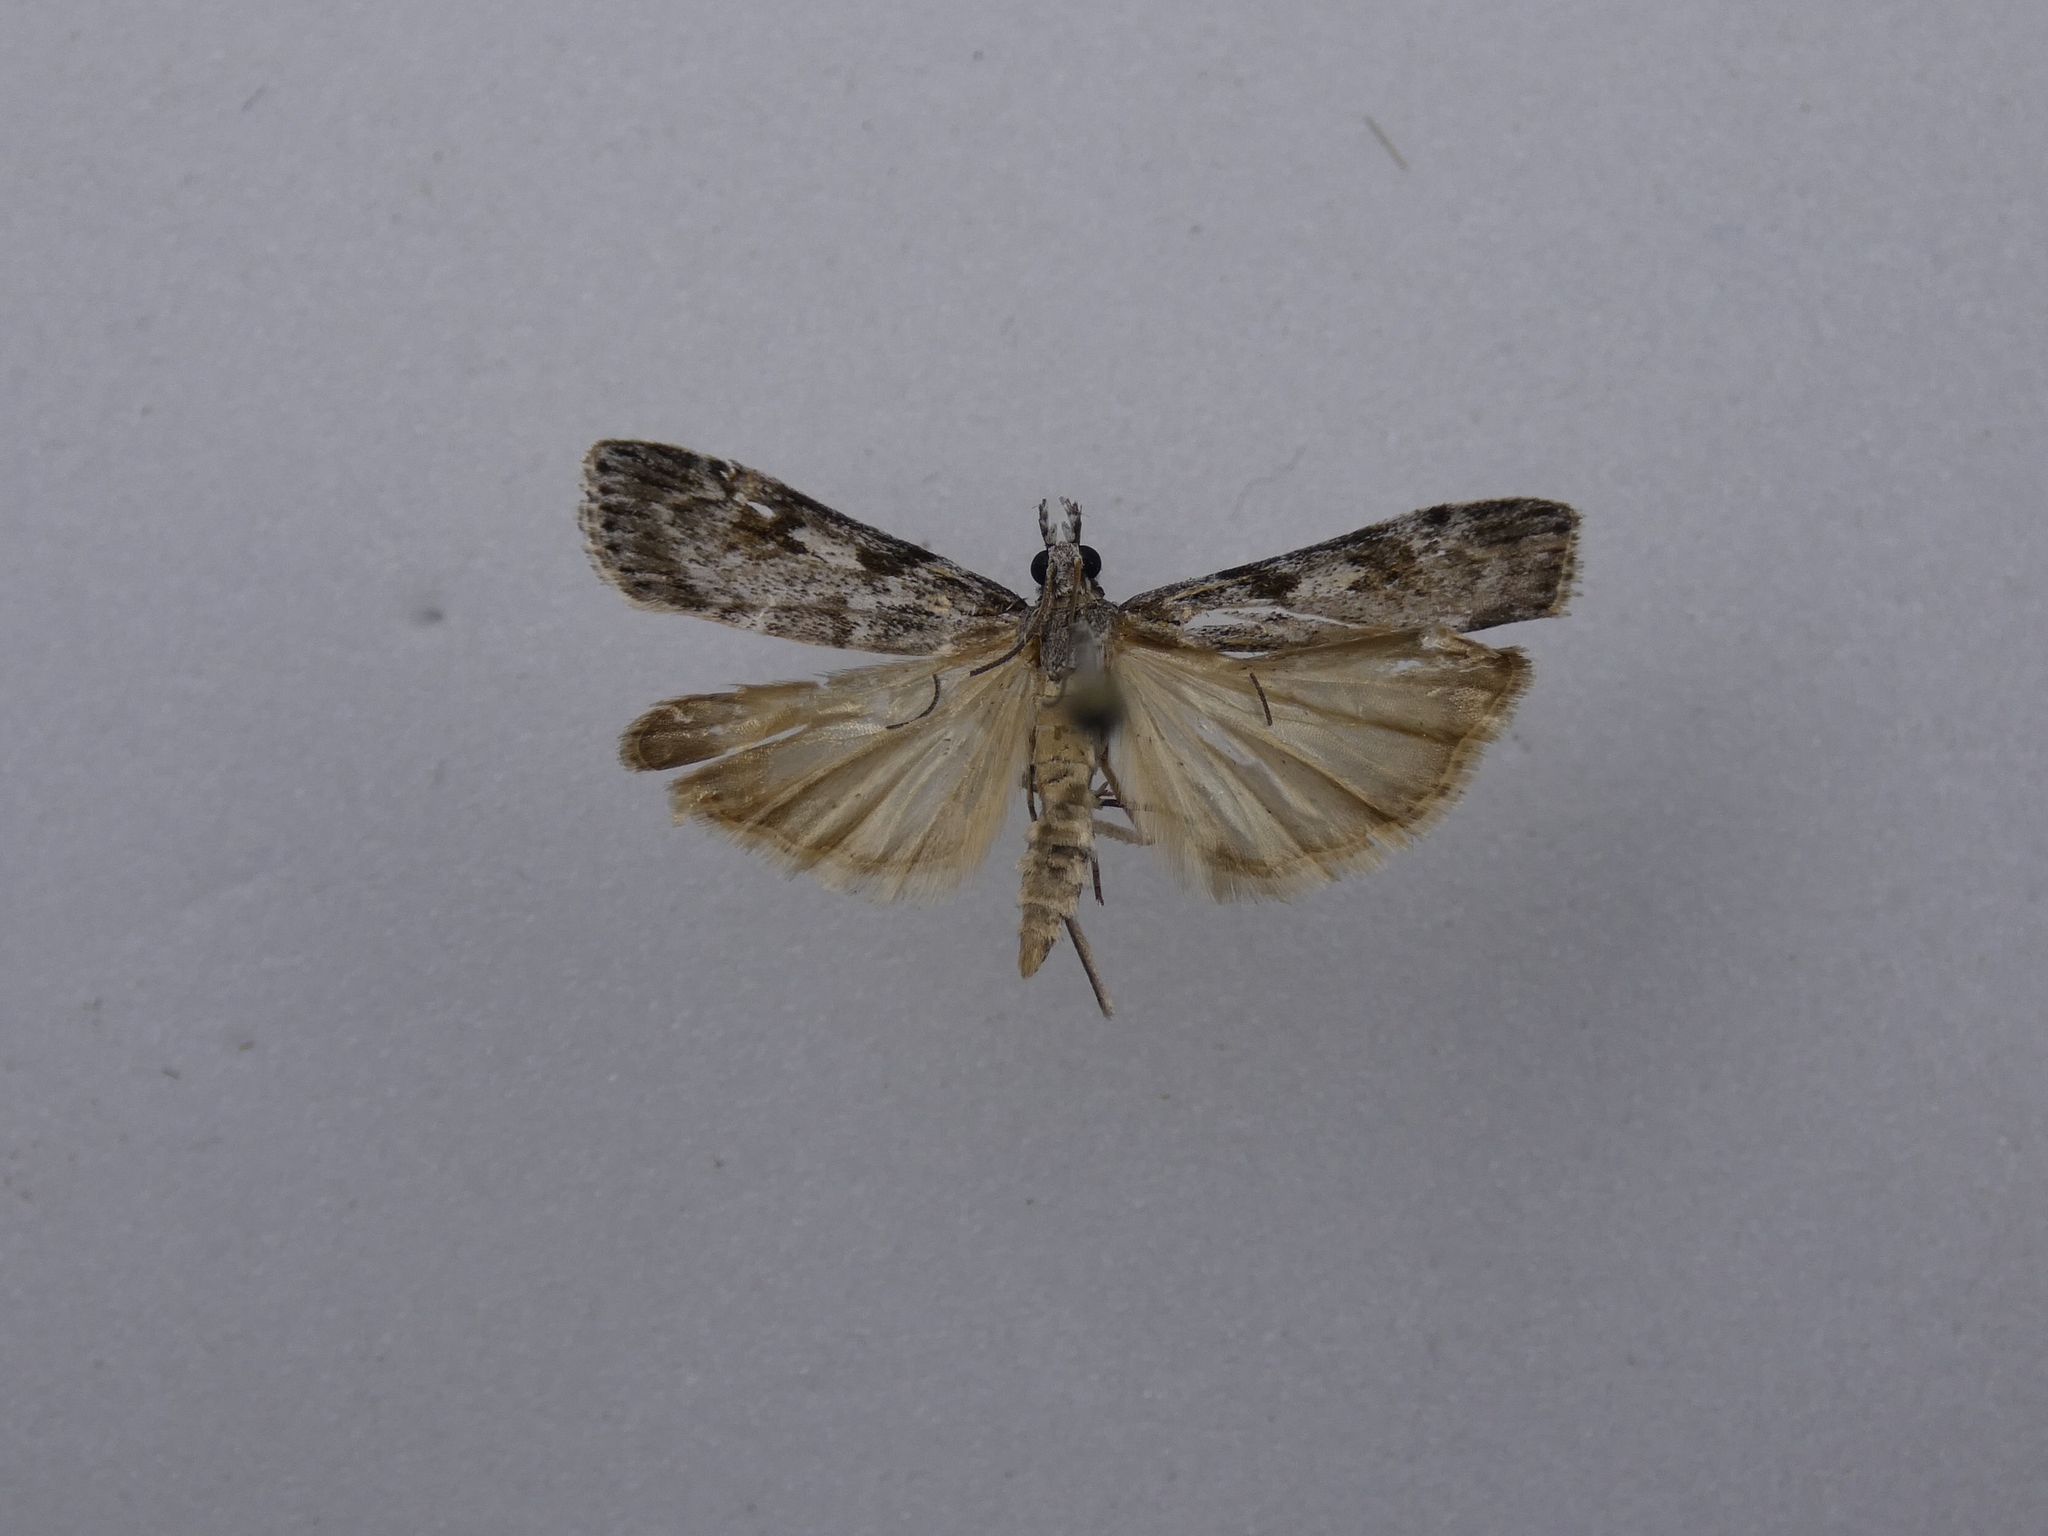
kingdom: Animalia
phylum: Arthropoda
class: Insecta
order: Lepidoptera
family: Crambidae
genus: Scoparia
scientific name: Scoparia halopis
